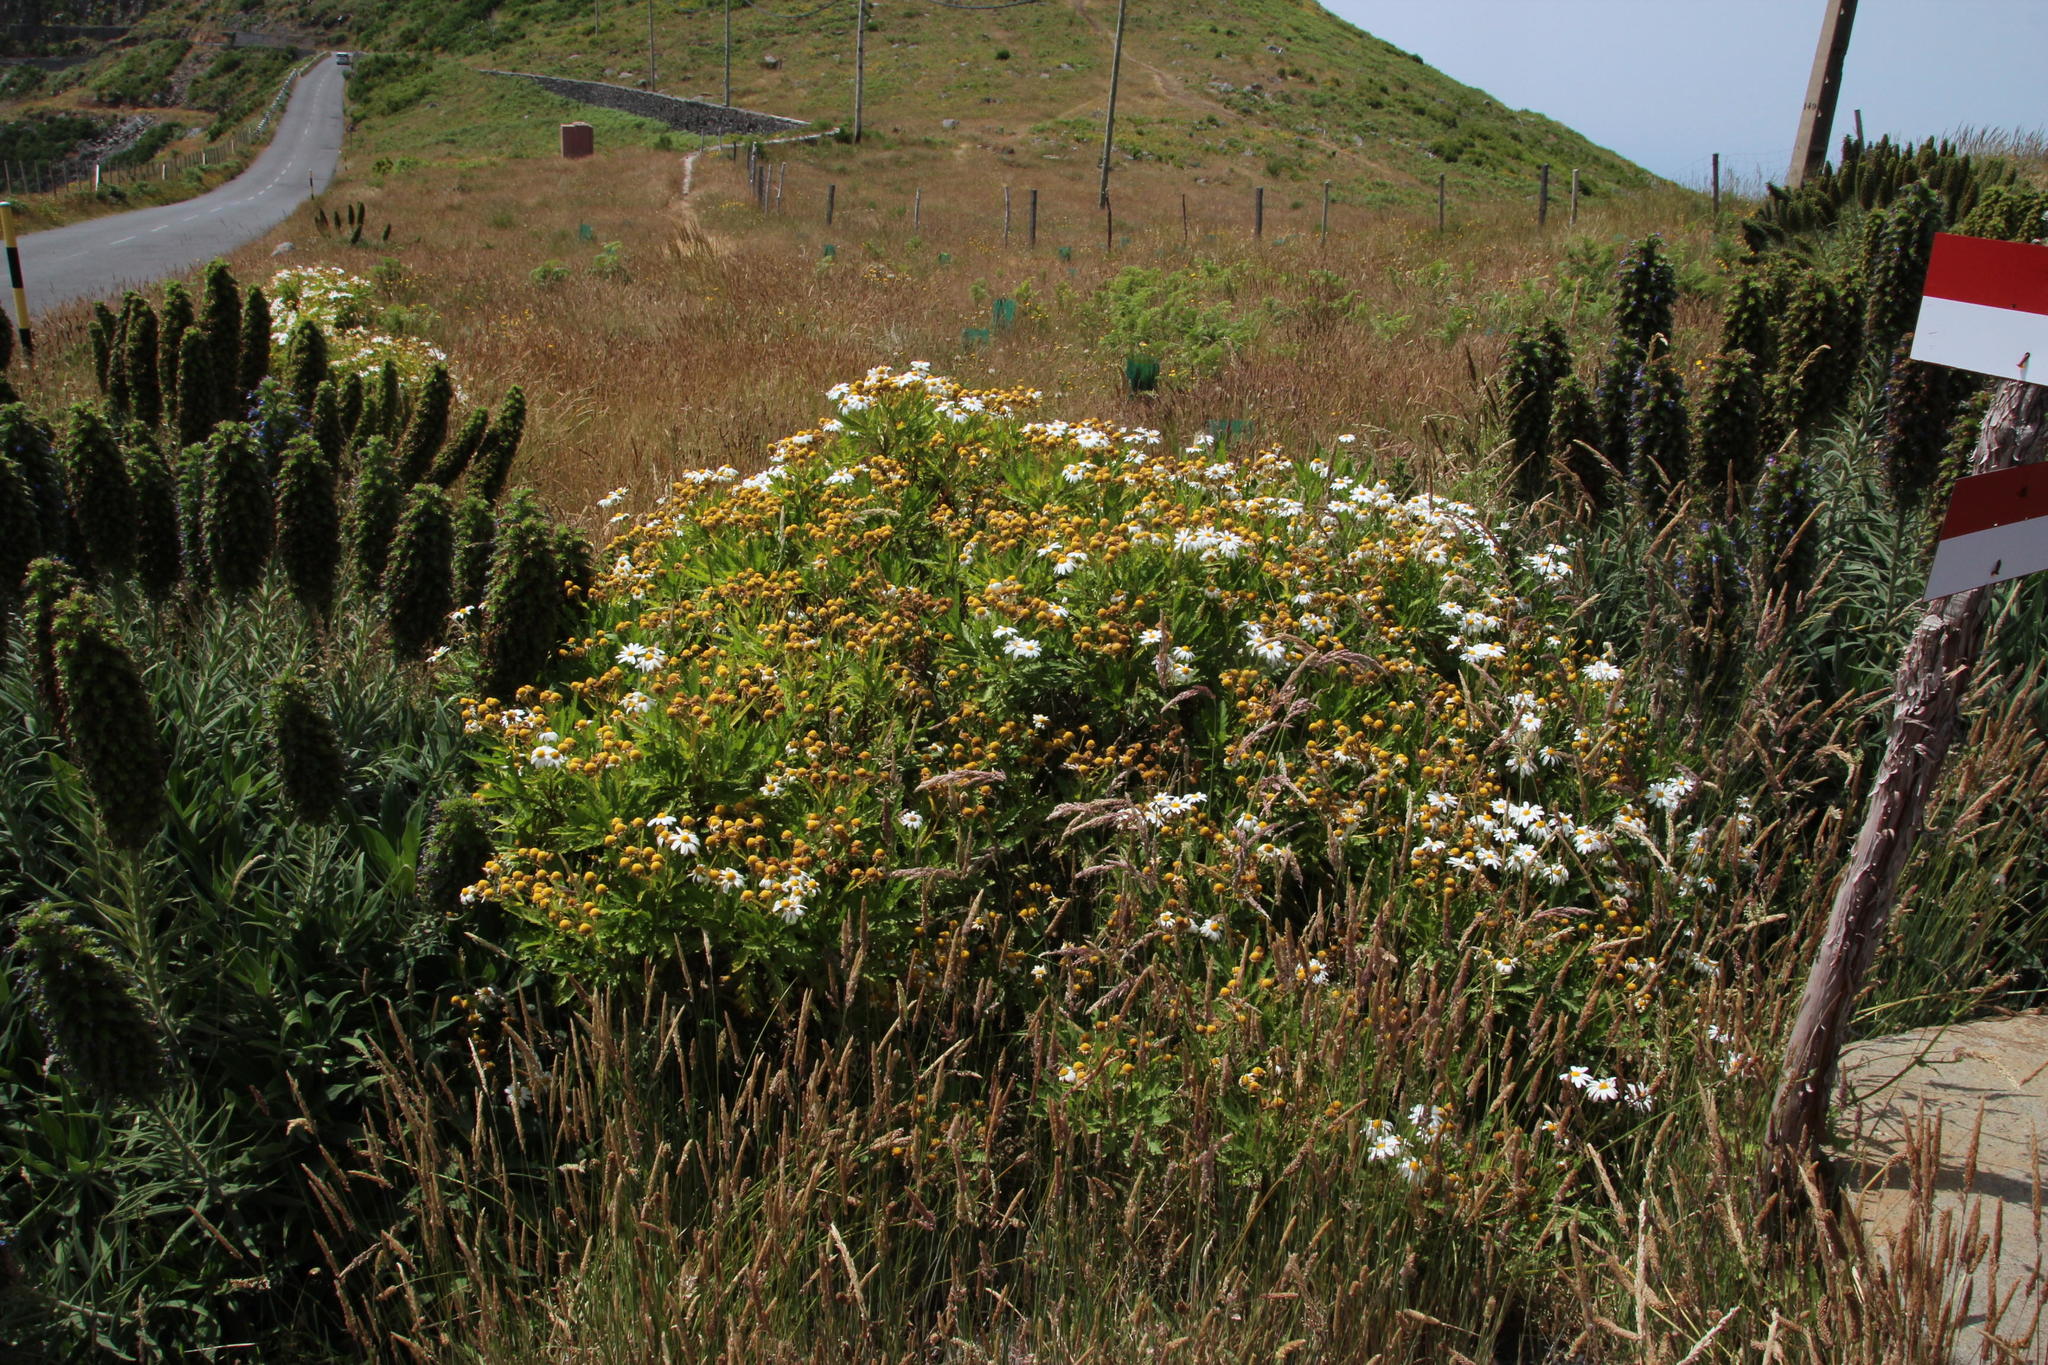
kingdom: Plantae
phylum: Tracheophyta
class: Magnoliopsida
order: Asterales
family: Asteraceae
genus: Argyranthemum
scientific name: Argyranthemum pinnatifidum
